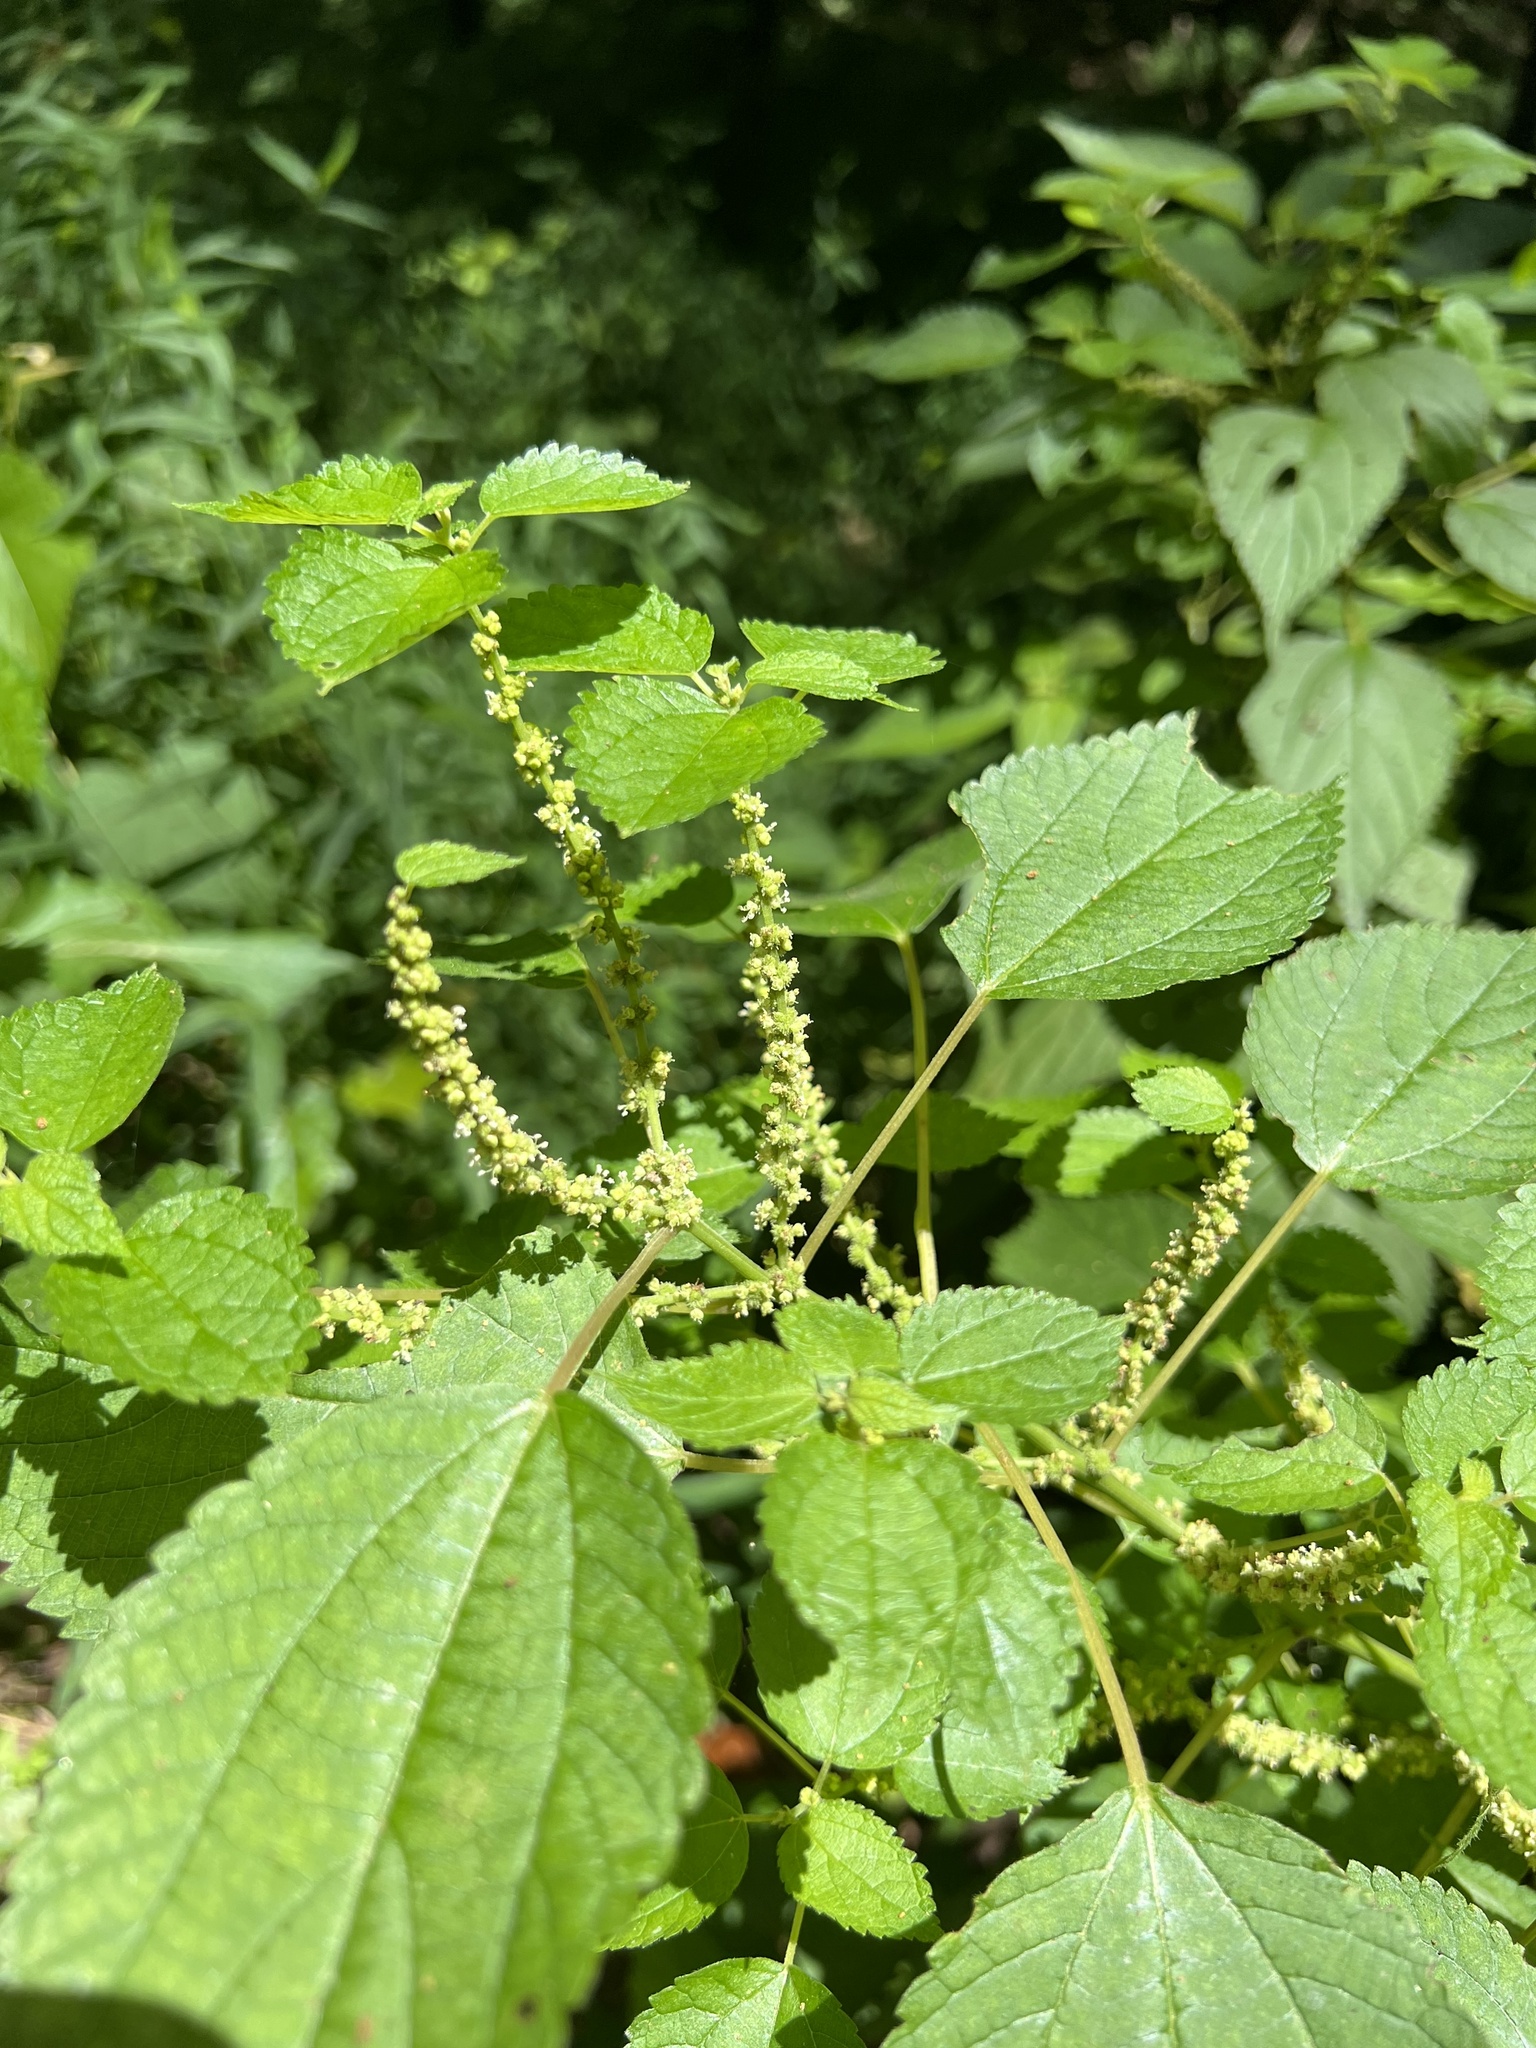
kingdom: Plantae
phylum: Tracheophyta
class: Magnoliopsida
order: Rosales
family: Urticaceae
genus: Boehmeria
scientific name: Boehmeria cylindrica
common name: Bog-hemp
